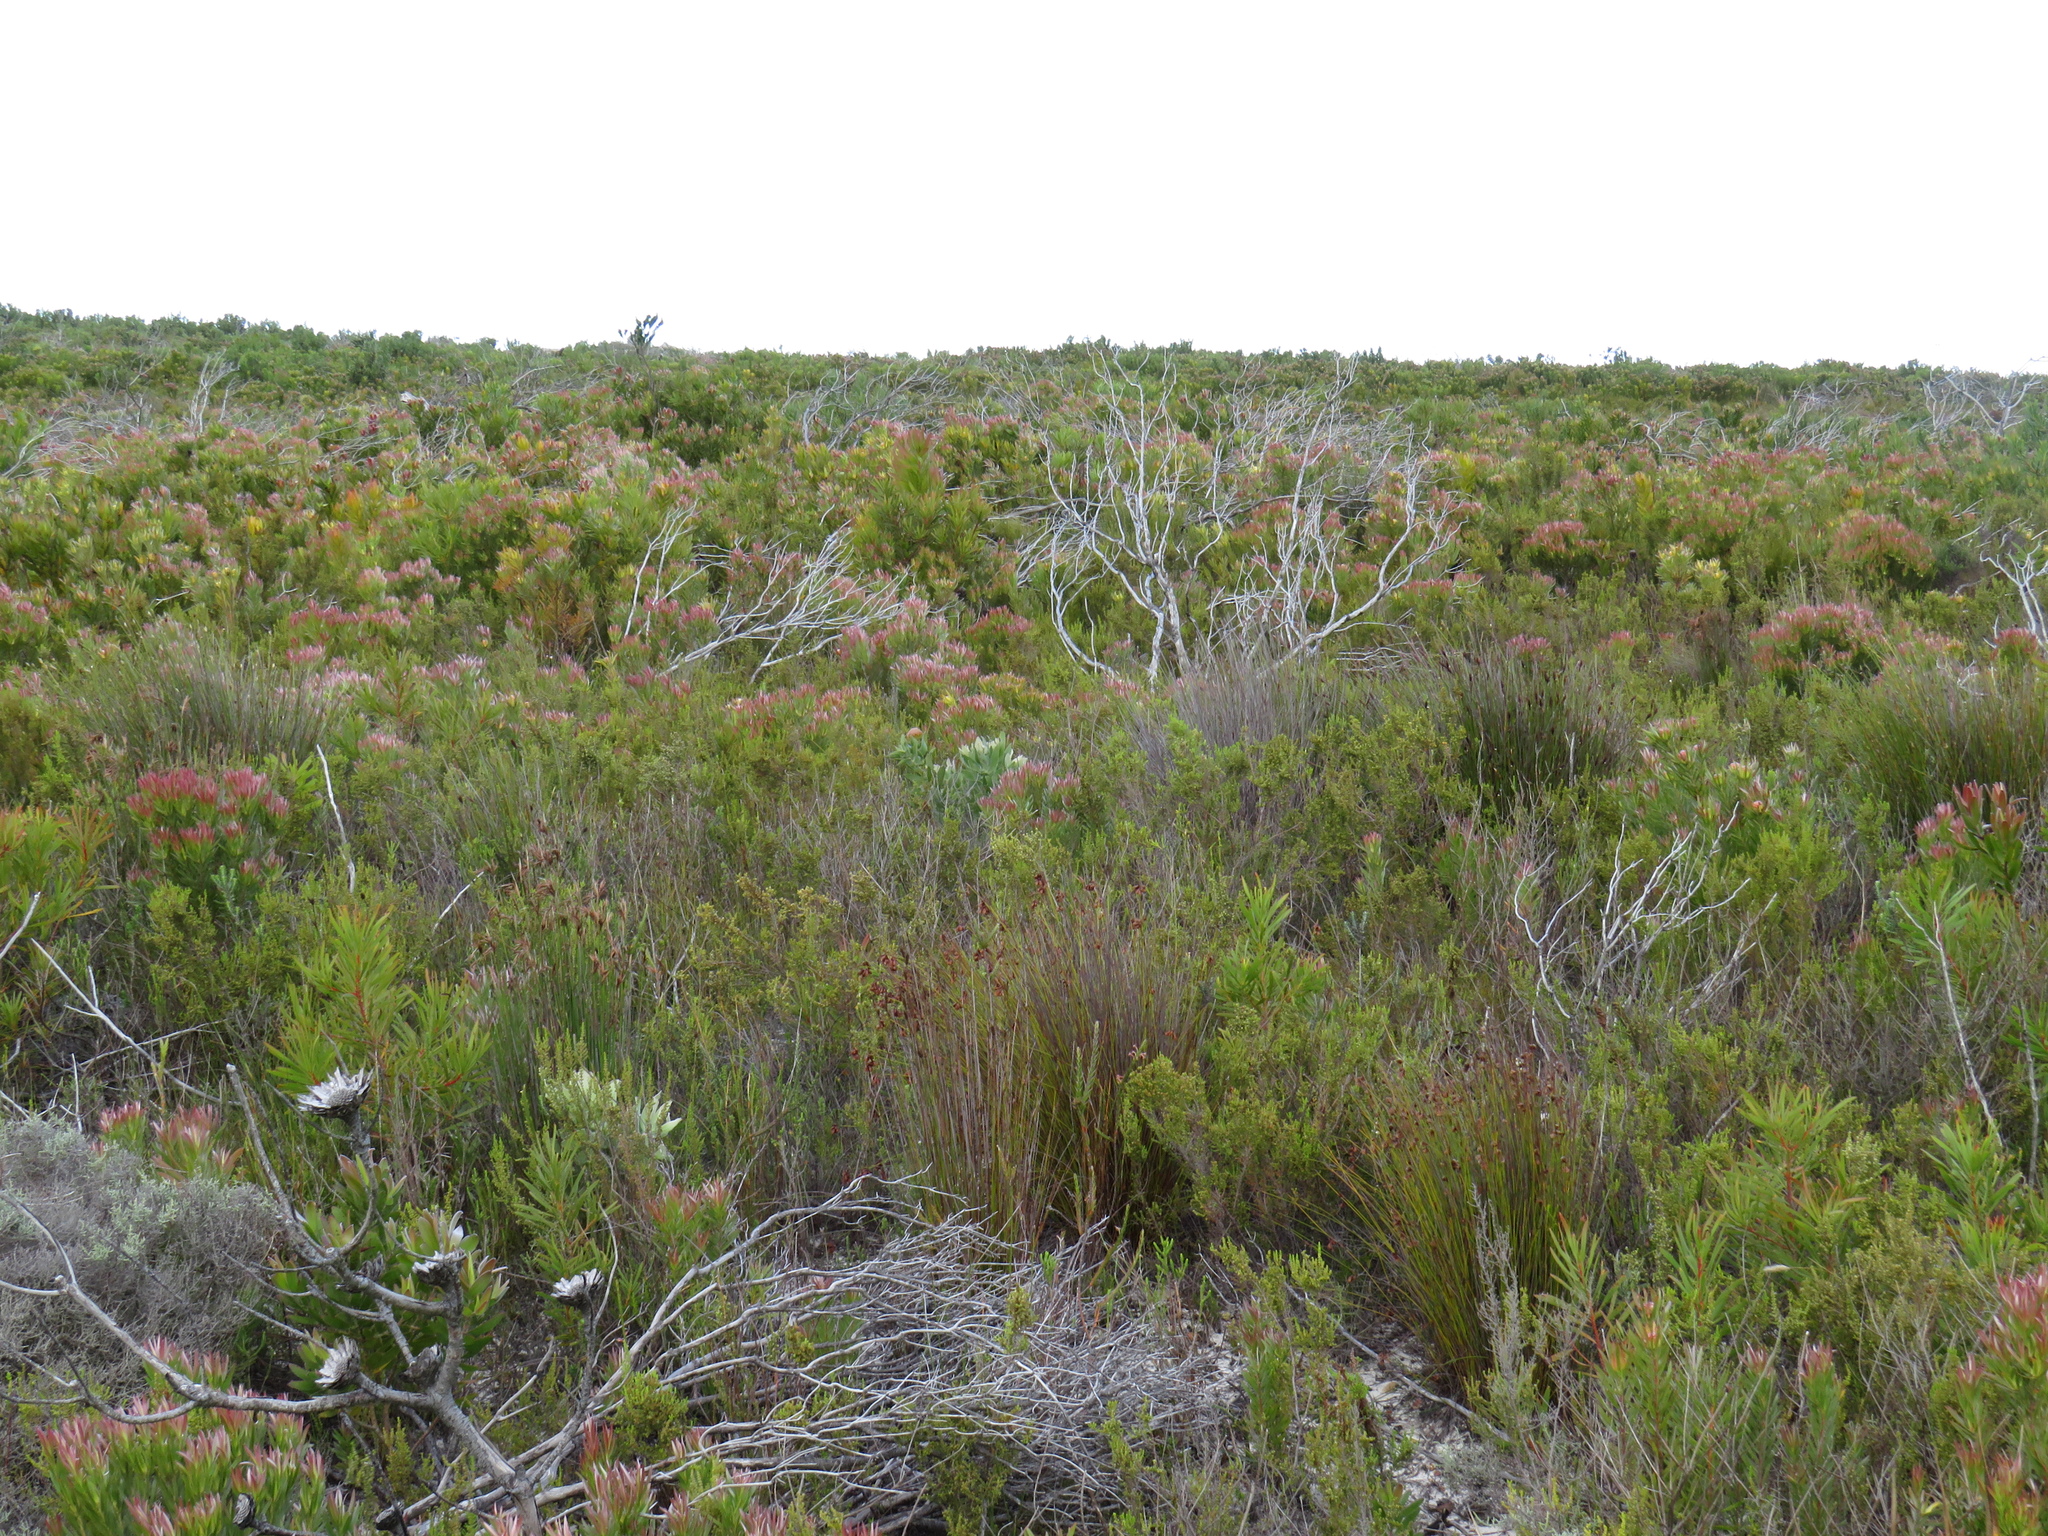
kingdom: Plantae
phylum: Tracheophyta
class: Magnoliopsida
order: Proteales
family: Proteaceae
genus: Leucospermum
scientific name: Leucospermum cordifolium
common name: Red pincushion-protea
